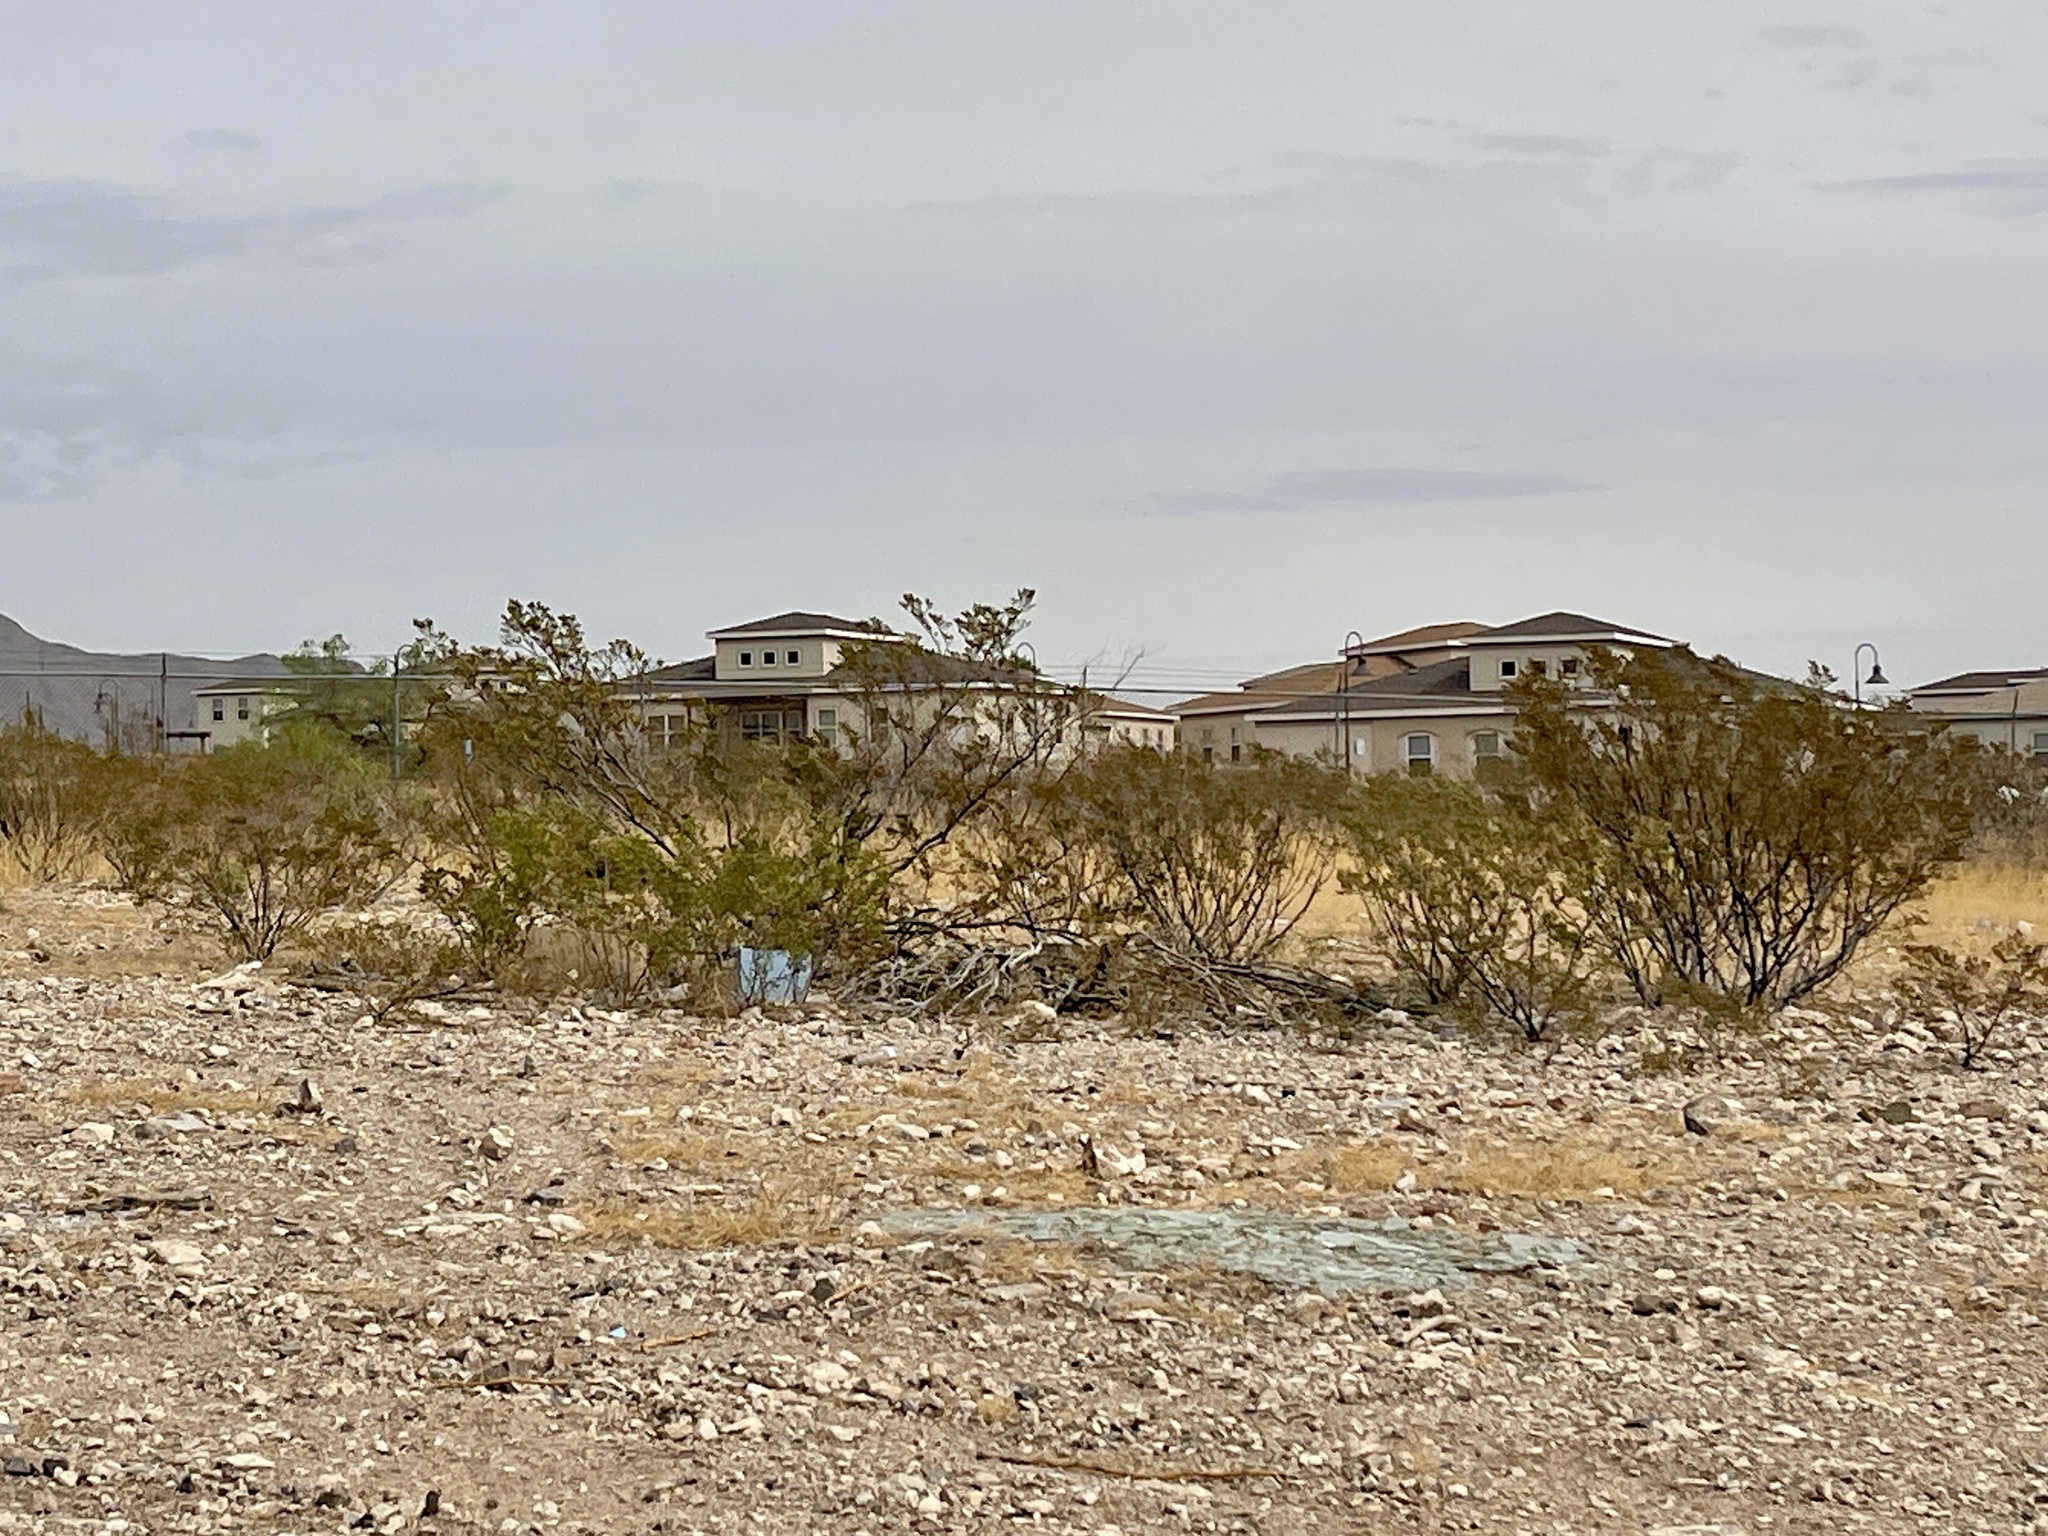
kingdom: Plantae
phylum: Tracheophyta
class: Magnoliopsida
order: Zygophyllales
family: Zygophyllaceae
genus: Larrea
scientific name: Larrea tridentata
